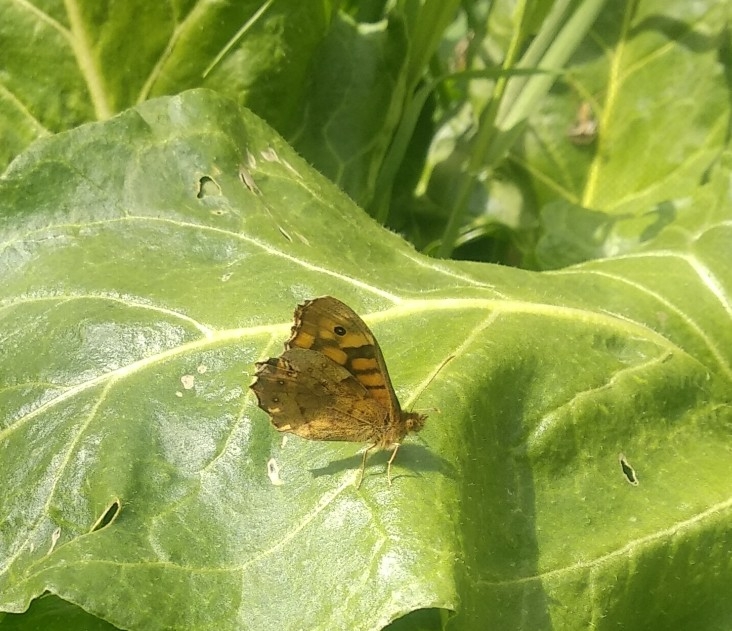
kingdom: Animalia
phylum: Arthropoda
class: Insecta
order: Lepidoptera
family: Nymphalidae
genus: Pararge
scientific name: Pararge aegeria
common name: Speckled wood
